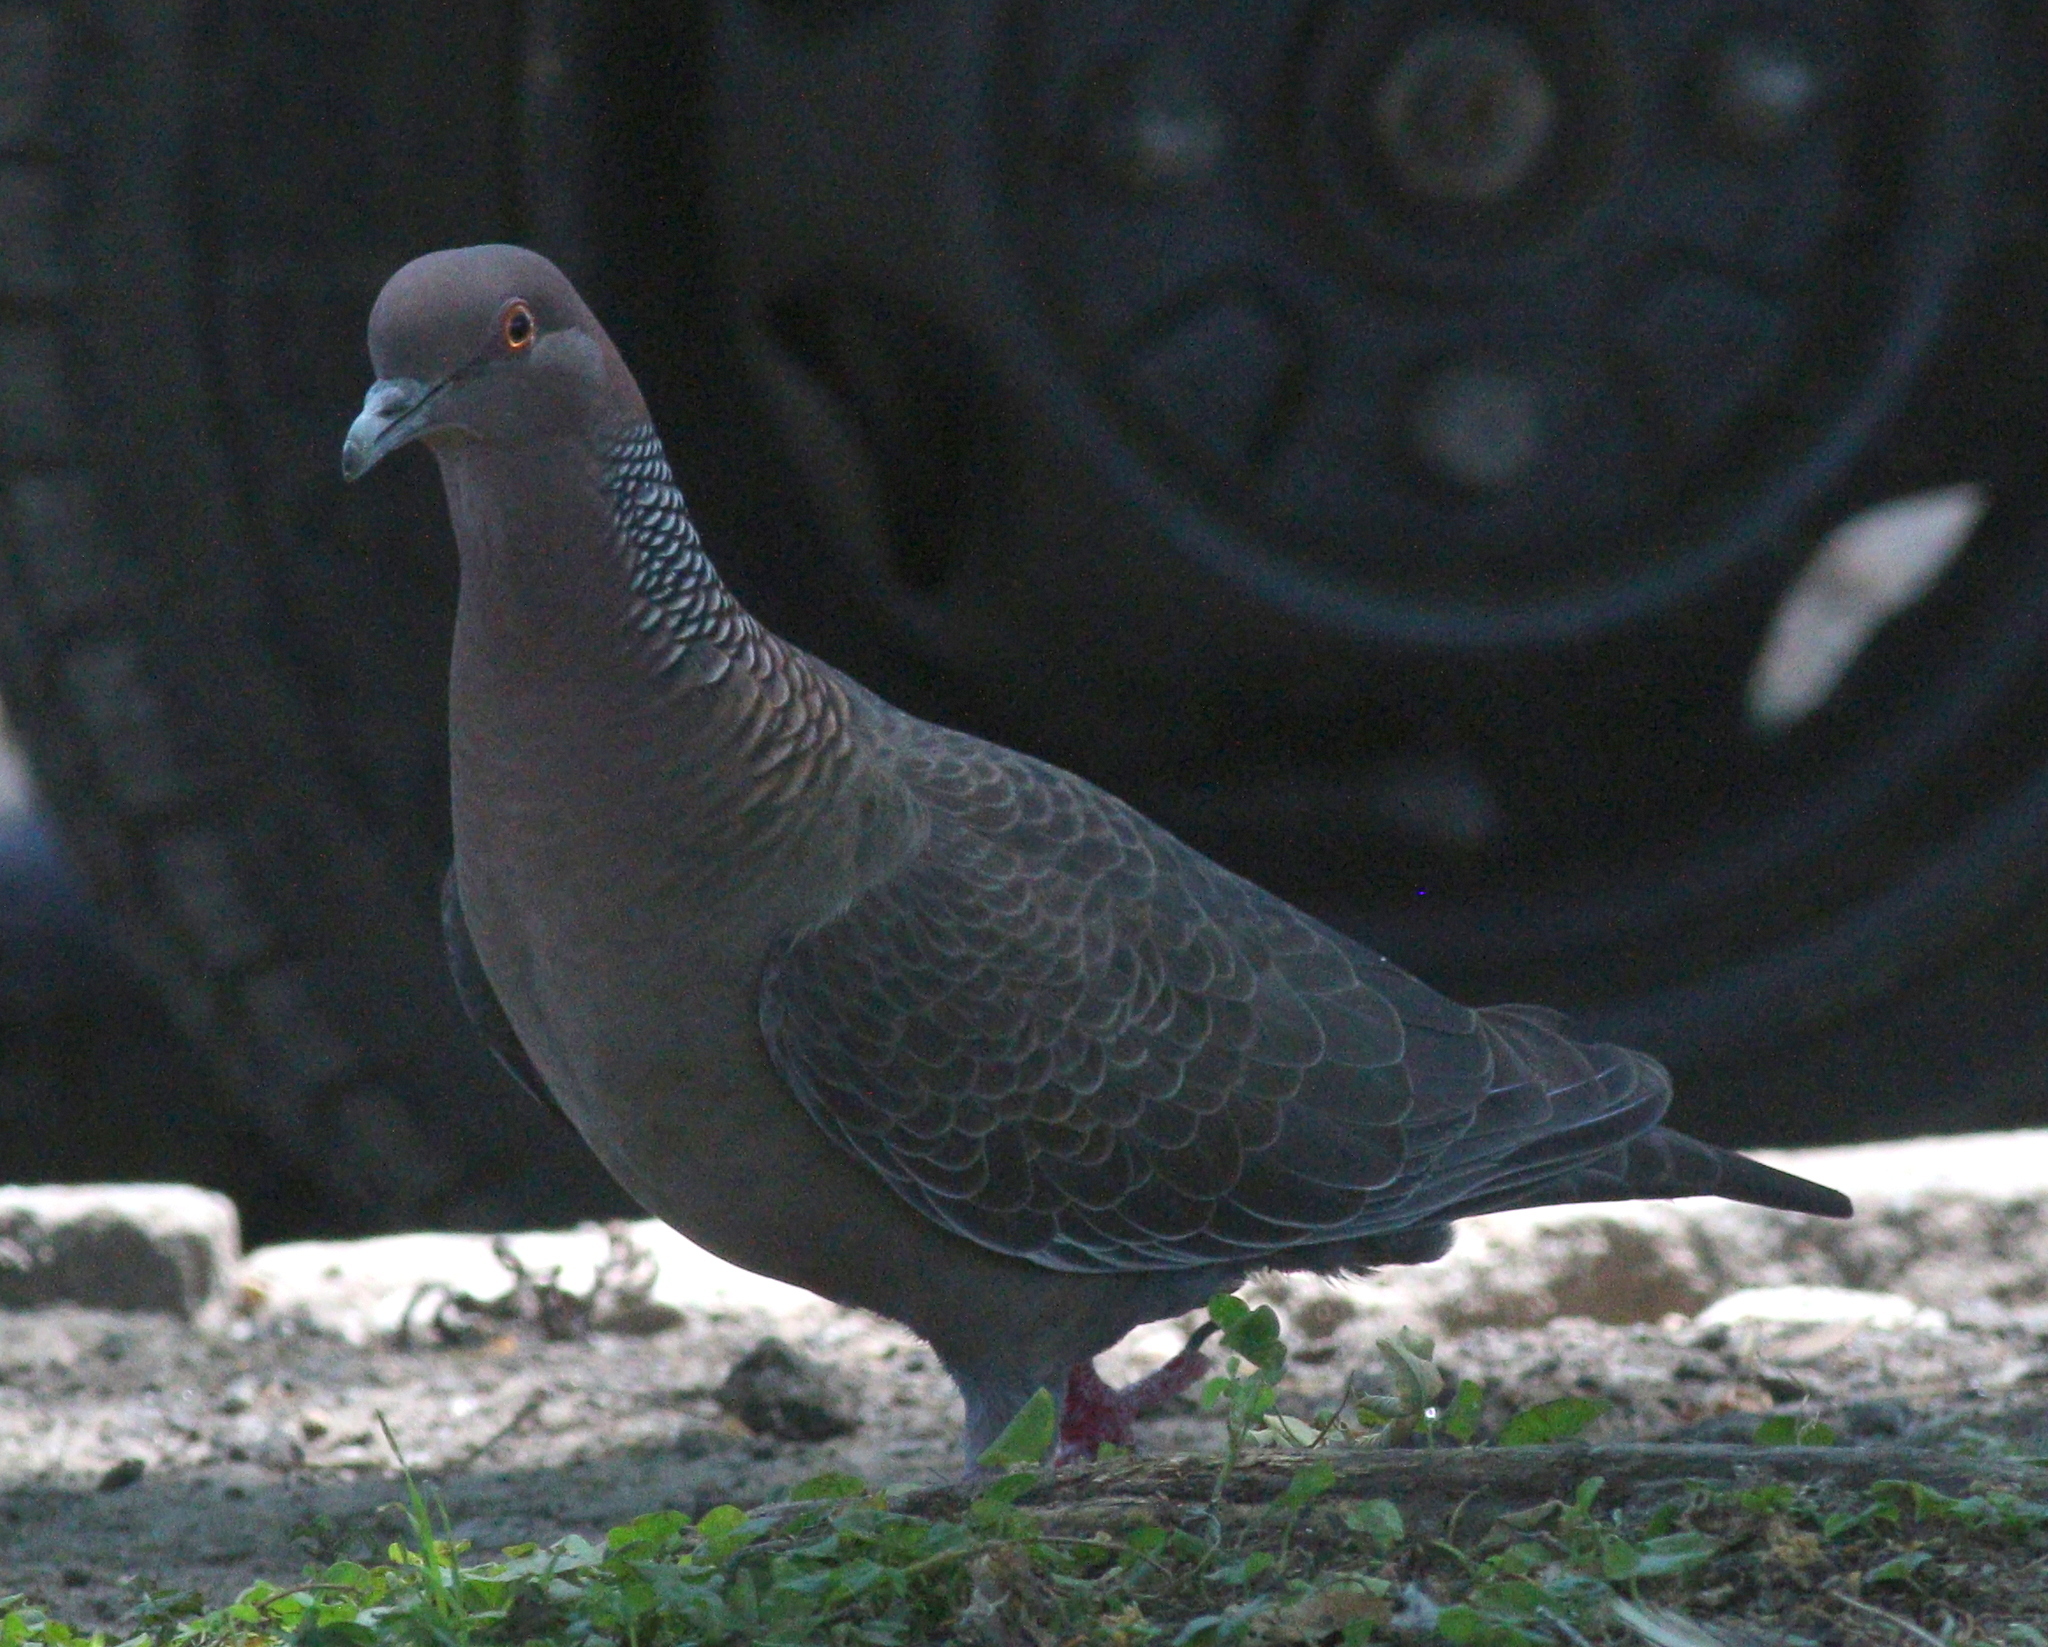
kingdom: Animalia
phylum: Chordata
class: Aves
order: Columbiformes
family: Columbidae
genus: Patagioenas
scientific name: Patagioenas picazuro
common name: Picazuro pigeon
